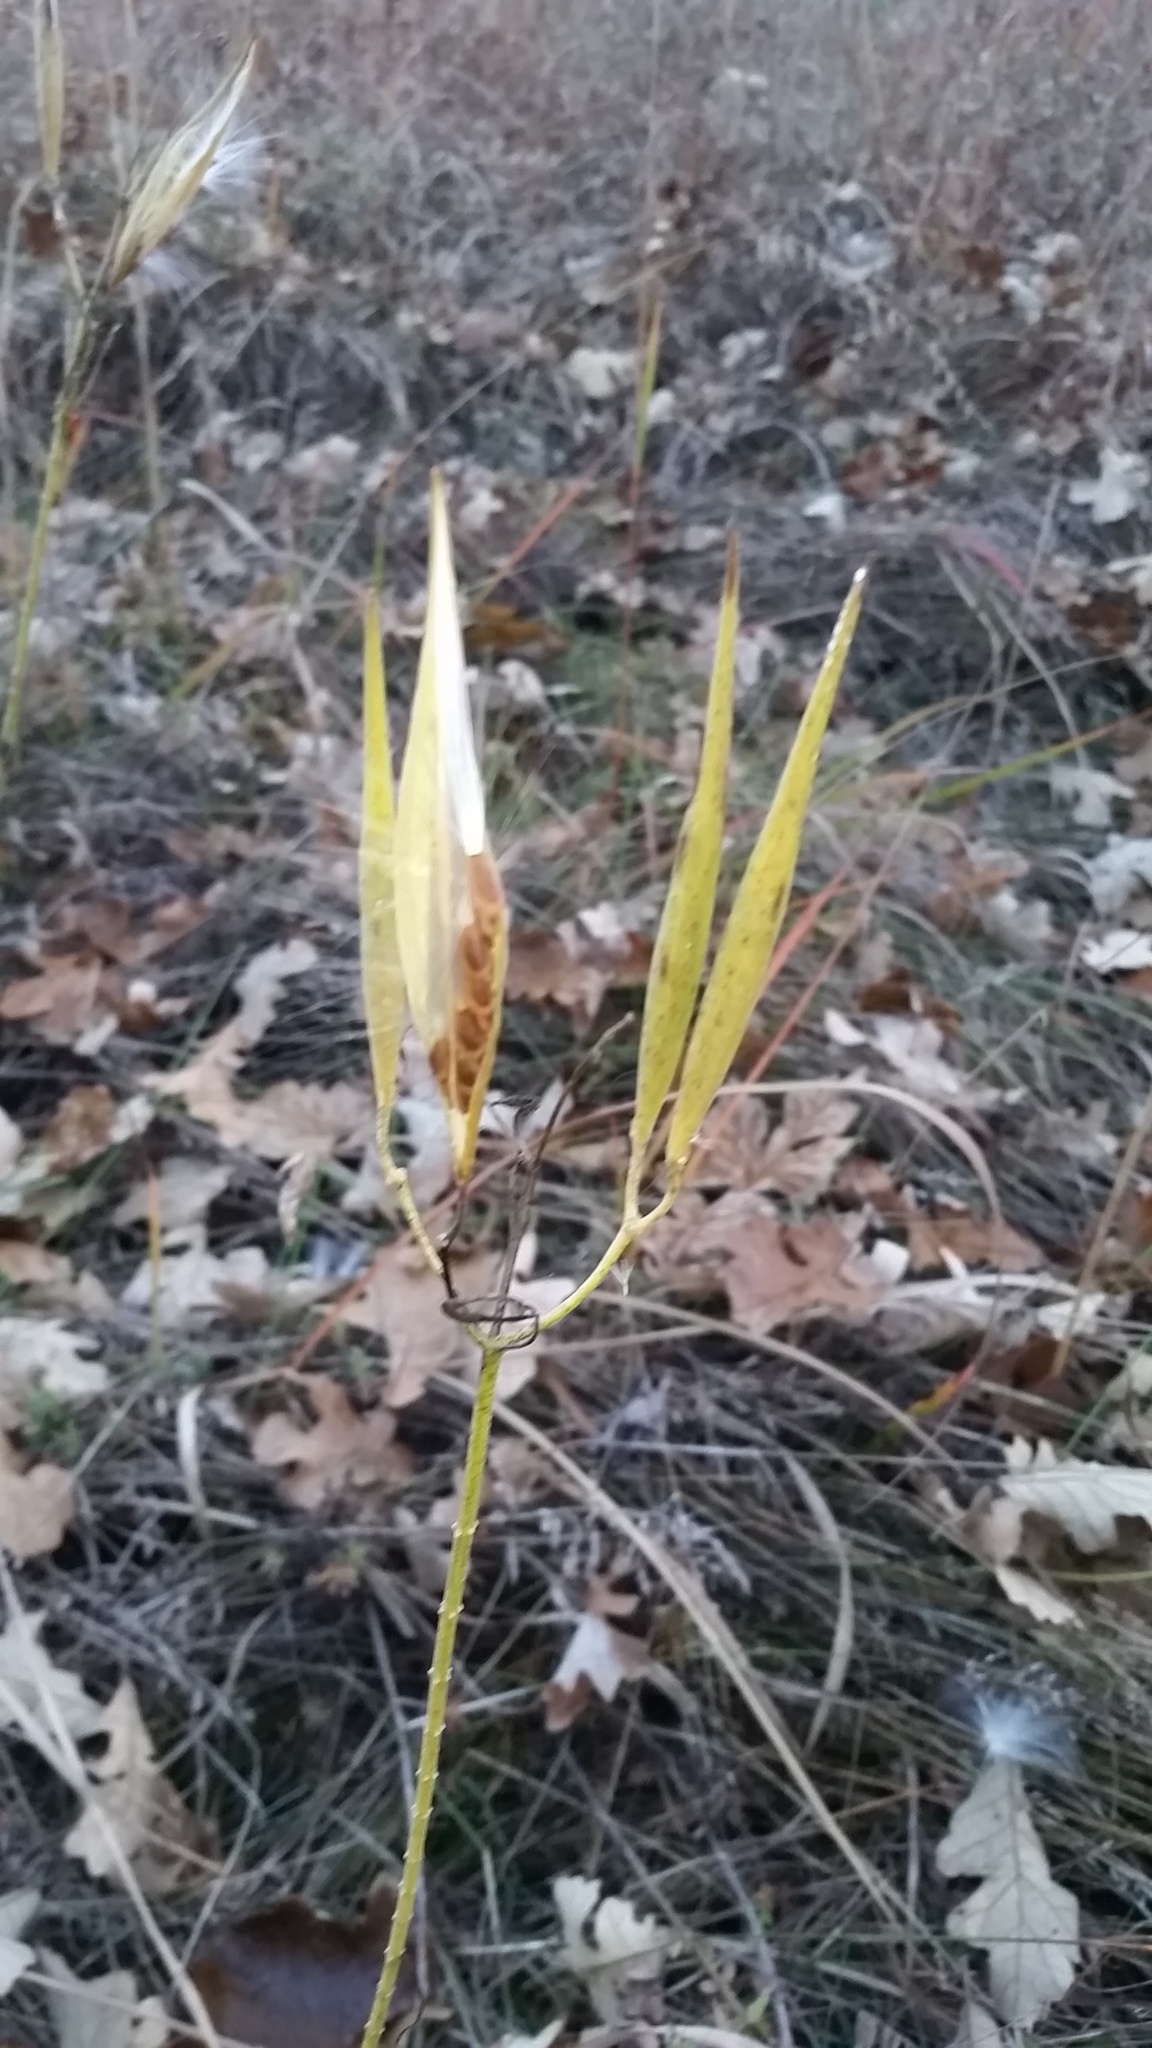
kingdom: Plantae
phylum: Tracheophyta
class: Magnoliopsida
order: Gentianales
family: Apocynaceae
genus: Asclepias
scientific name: Asclepias verticillata
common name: Eastern whorled milkweed
